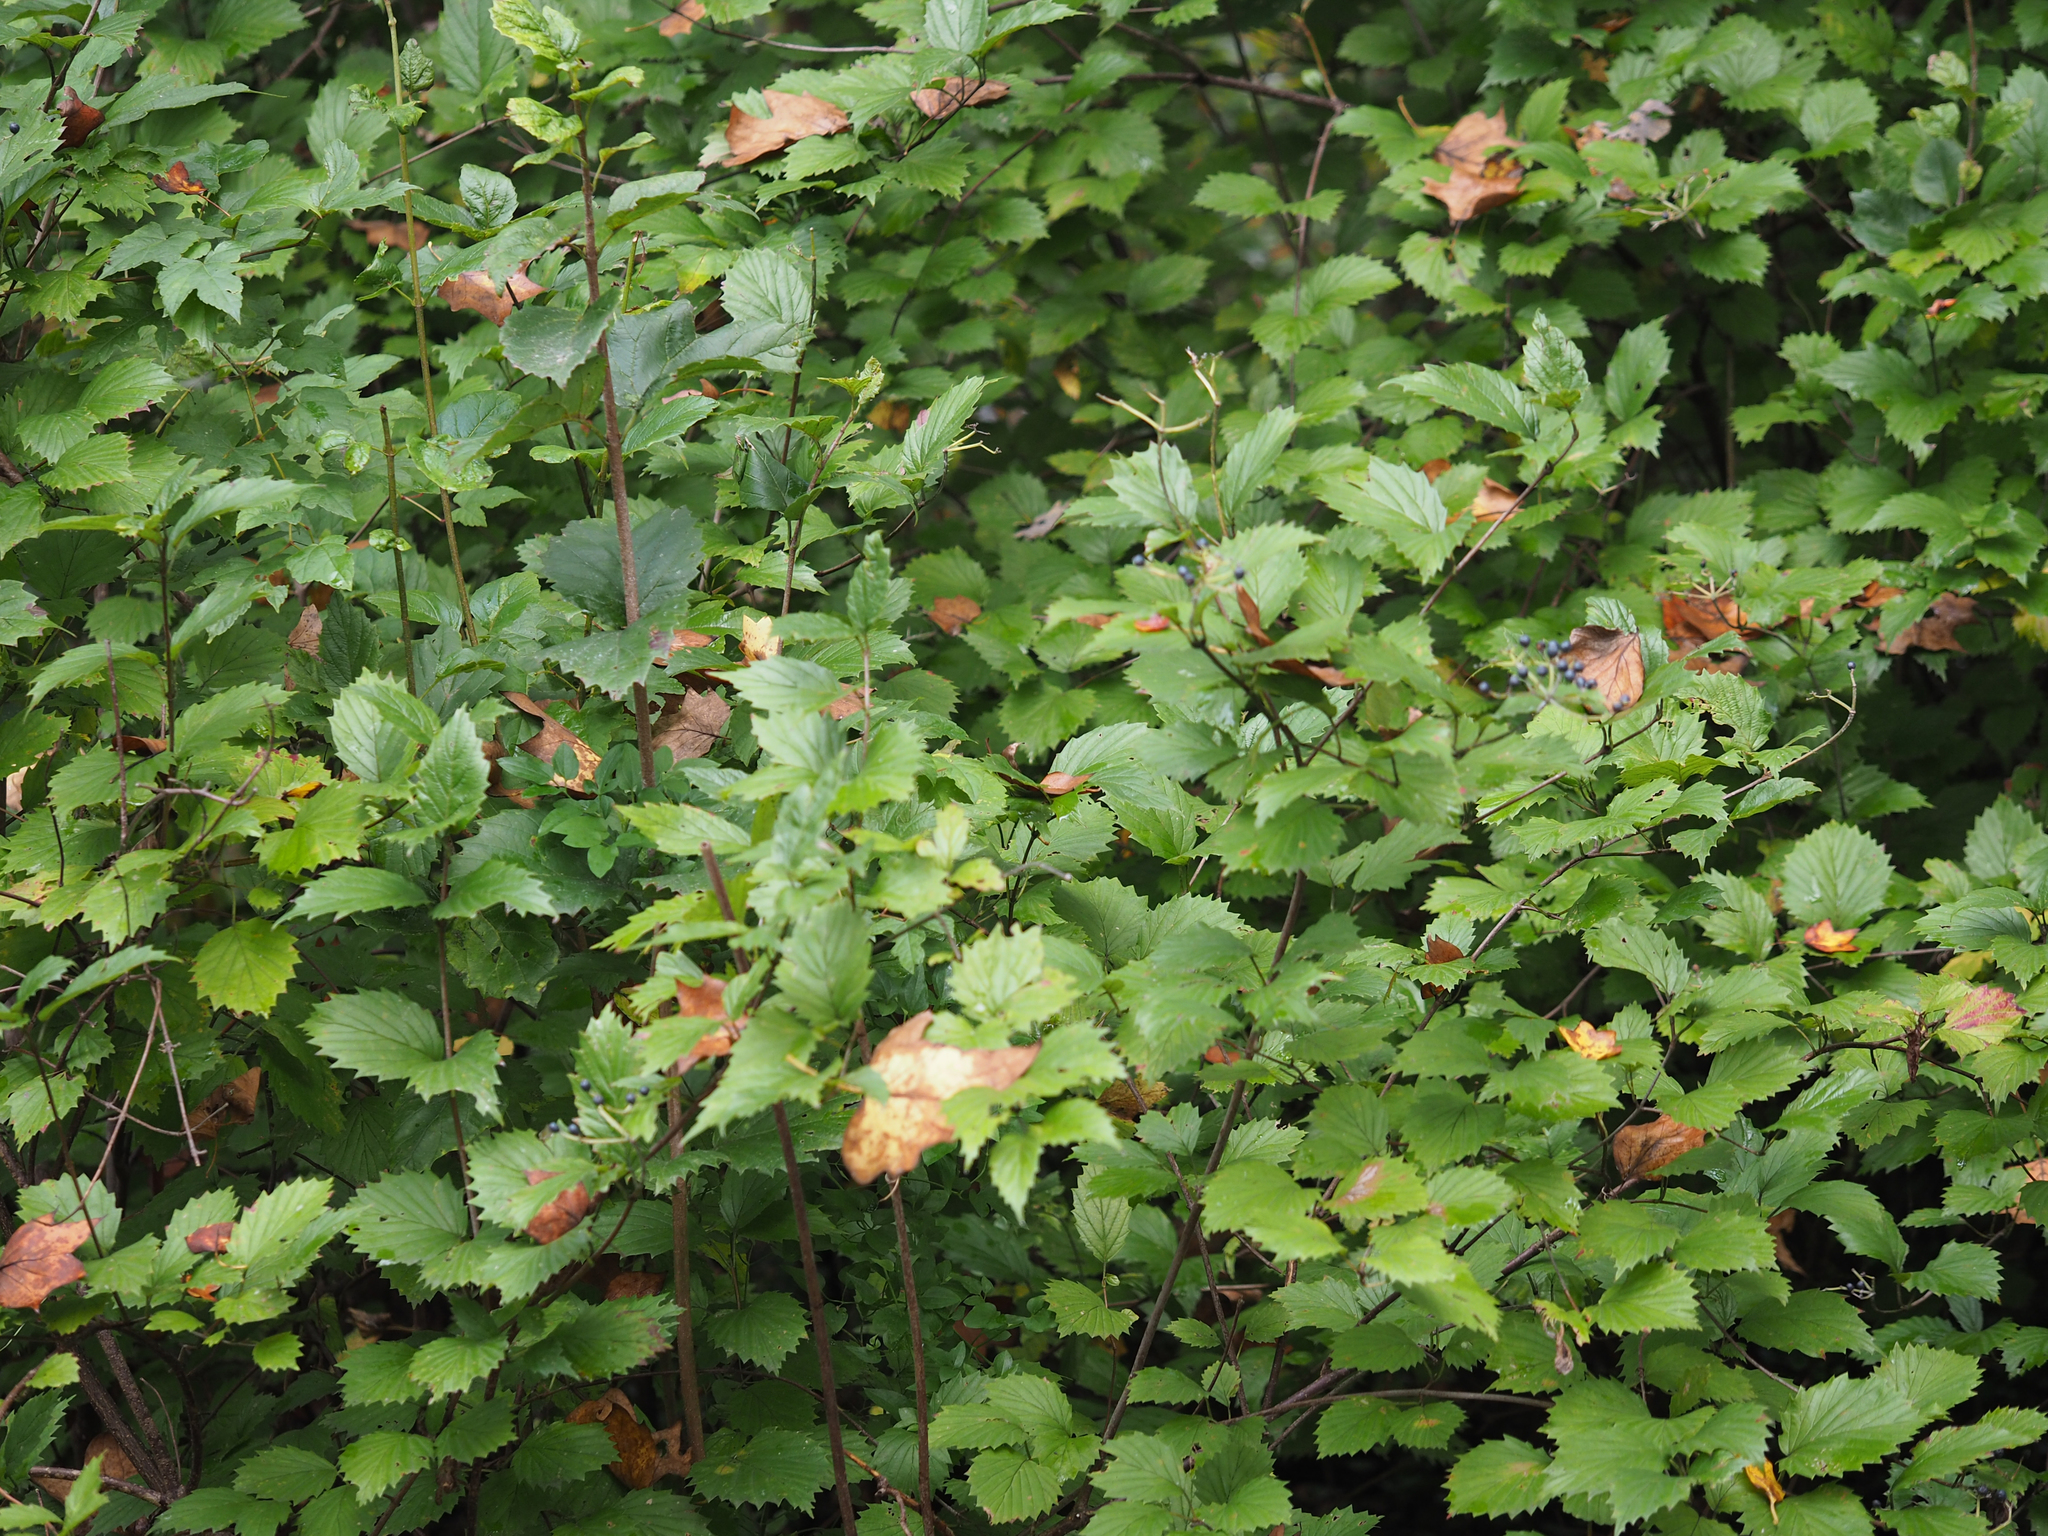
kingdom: Plantae
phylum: Tracheophyta
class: Magnoliopsida
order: Dipsacales
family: Viburnaceae
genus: Viburnum
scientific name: Viburnum dentatum
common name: Arrow-wood
